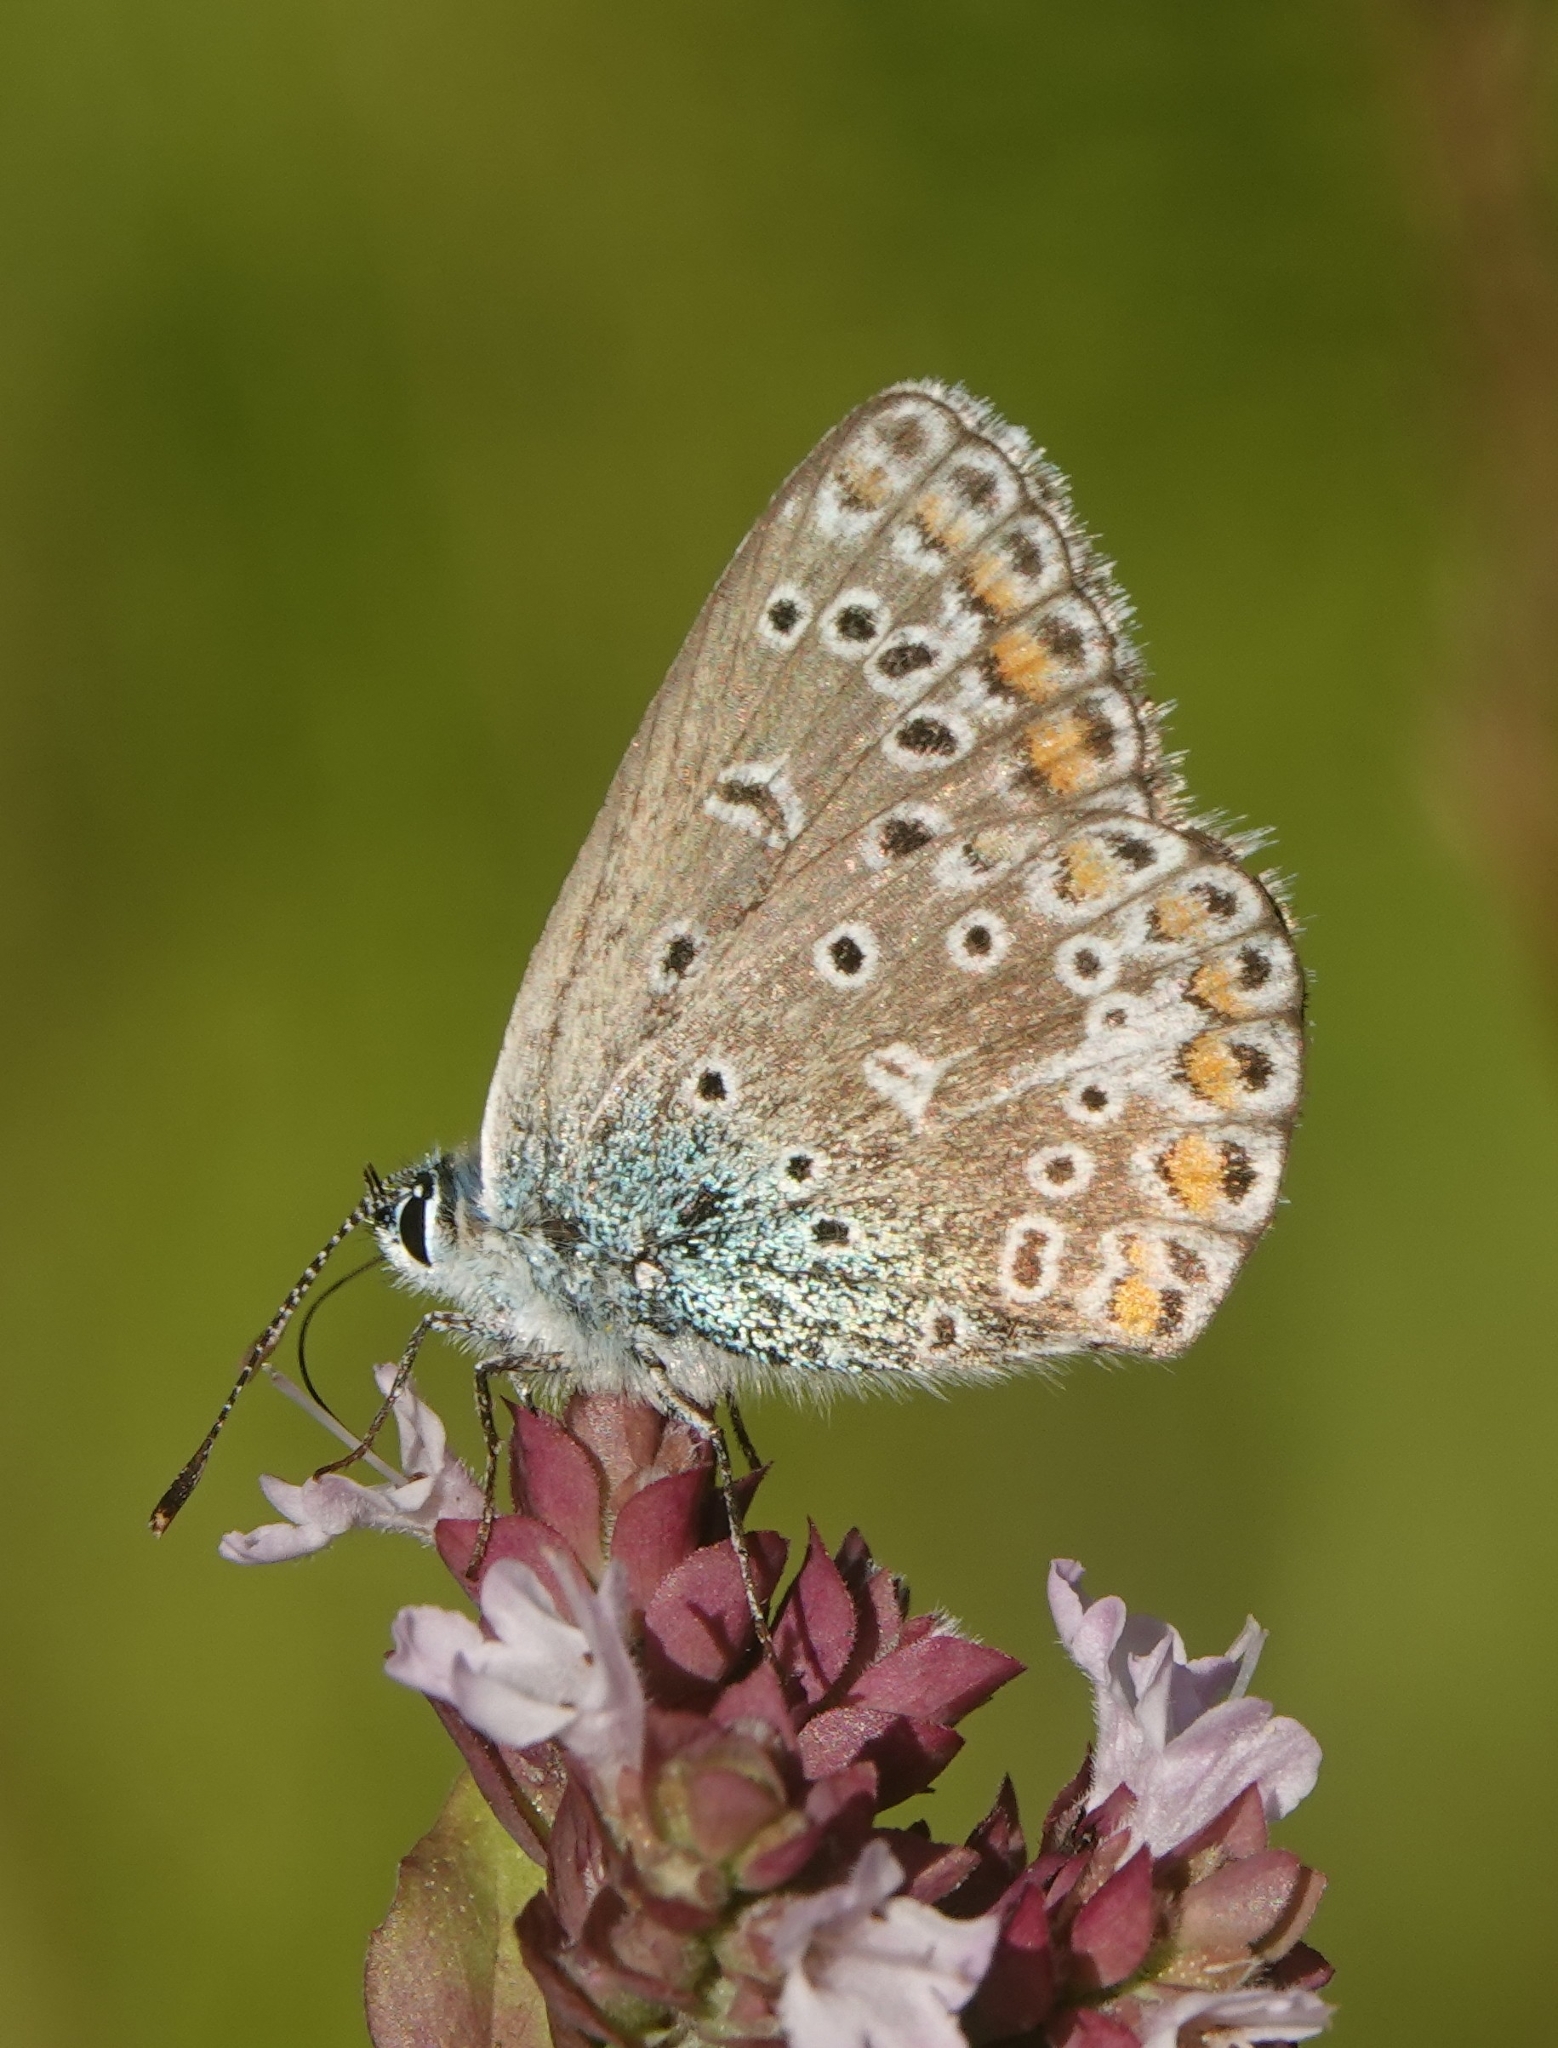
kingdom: Animalia
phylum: Arthropoda
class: Insecta
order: Lepidoptera
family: Lycaenidae
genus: Polyommatus
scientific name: Polyommatus icarus
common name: Common blue
